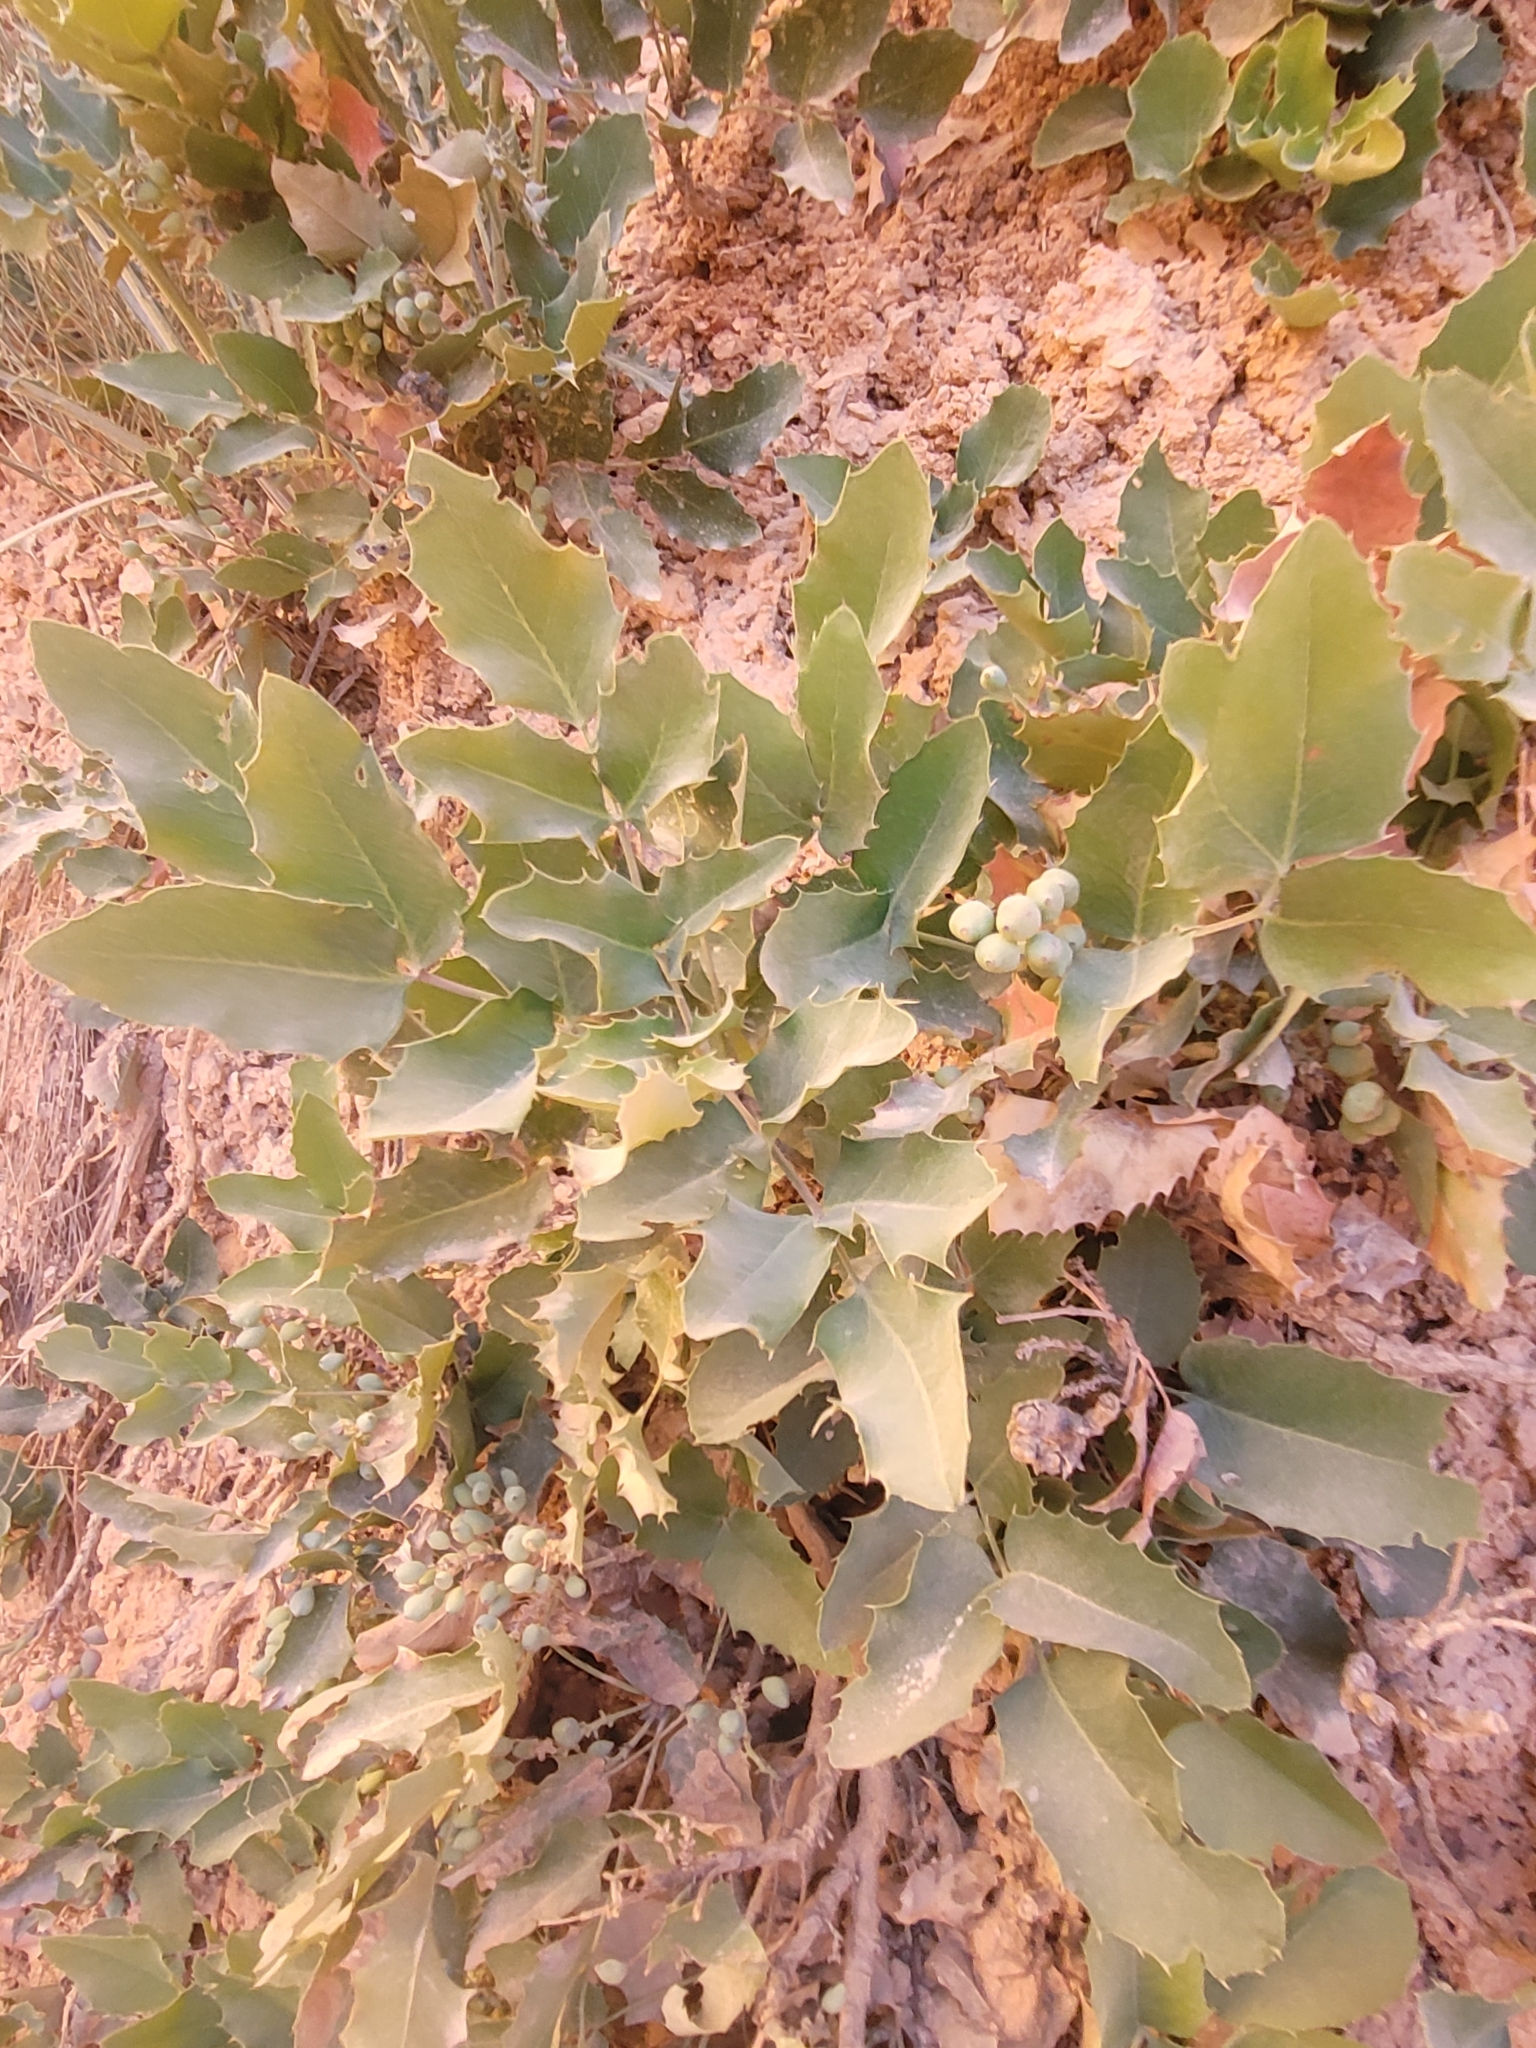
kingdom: Plantae
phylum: Tracheophyta
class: Magnoliopsida
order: Ranunculales
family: Berberidaceae
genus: Mahonia
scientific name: Mahonia repens
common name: Creeping oregon-grape
